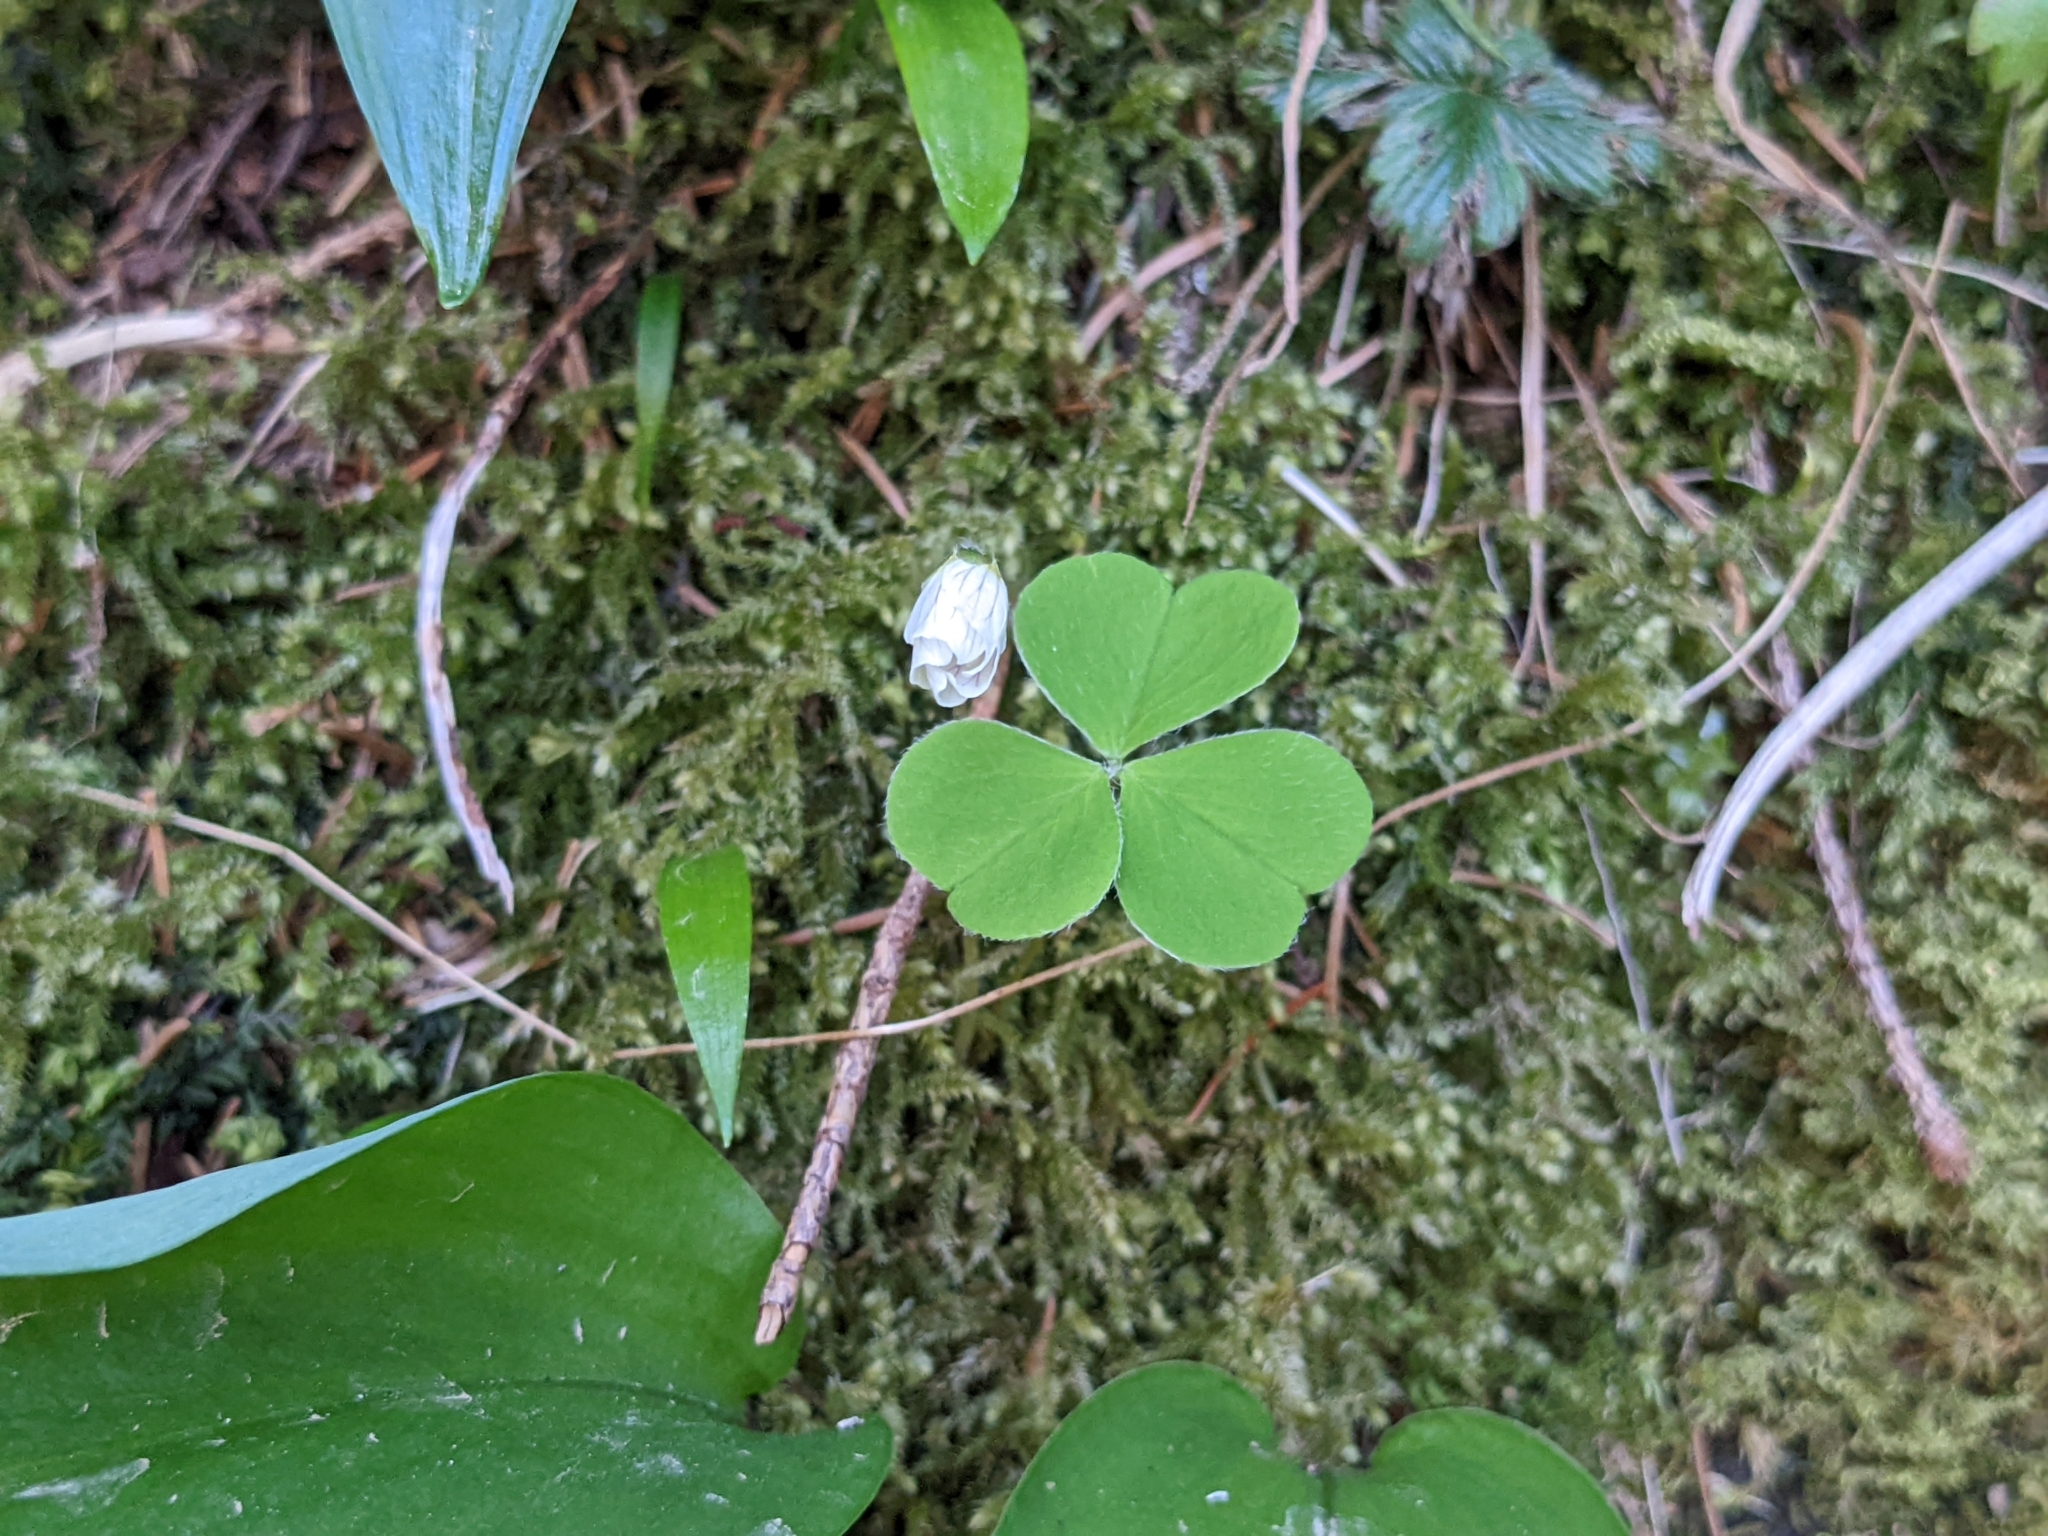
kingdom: Plantae
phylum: Tracheophyta
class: Magnoliopsida
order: Oxalidales
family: Oxalidaceae
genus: Oxalis
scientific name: Oxalis acetosella
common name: Wood-sorrel
